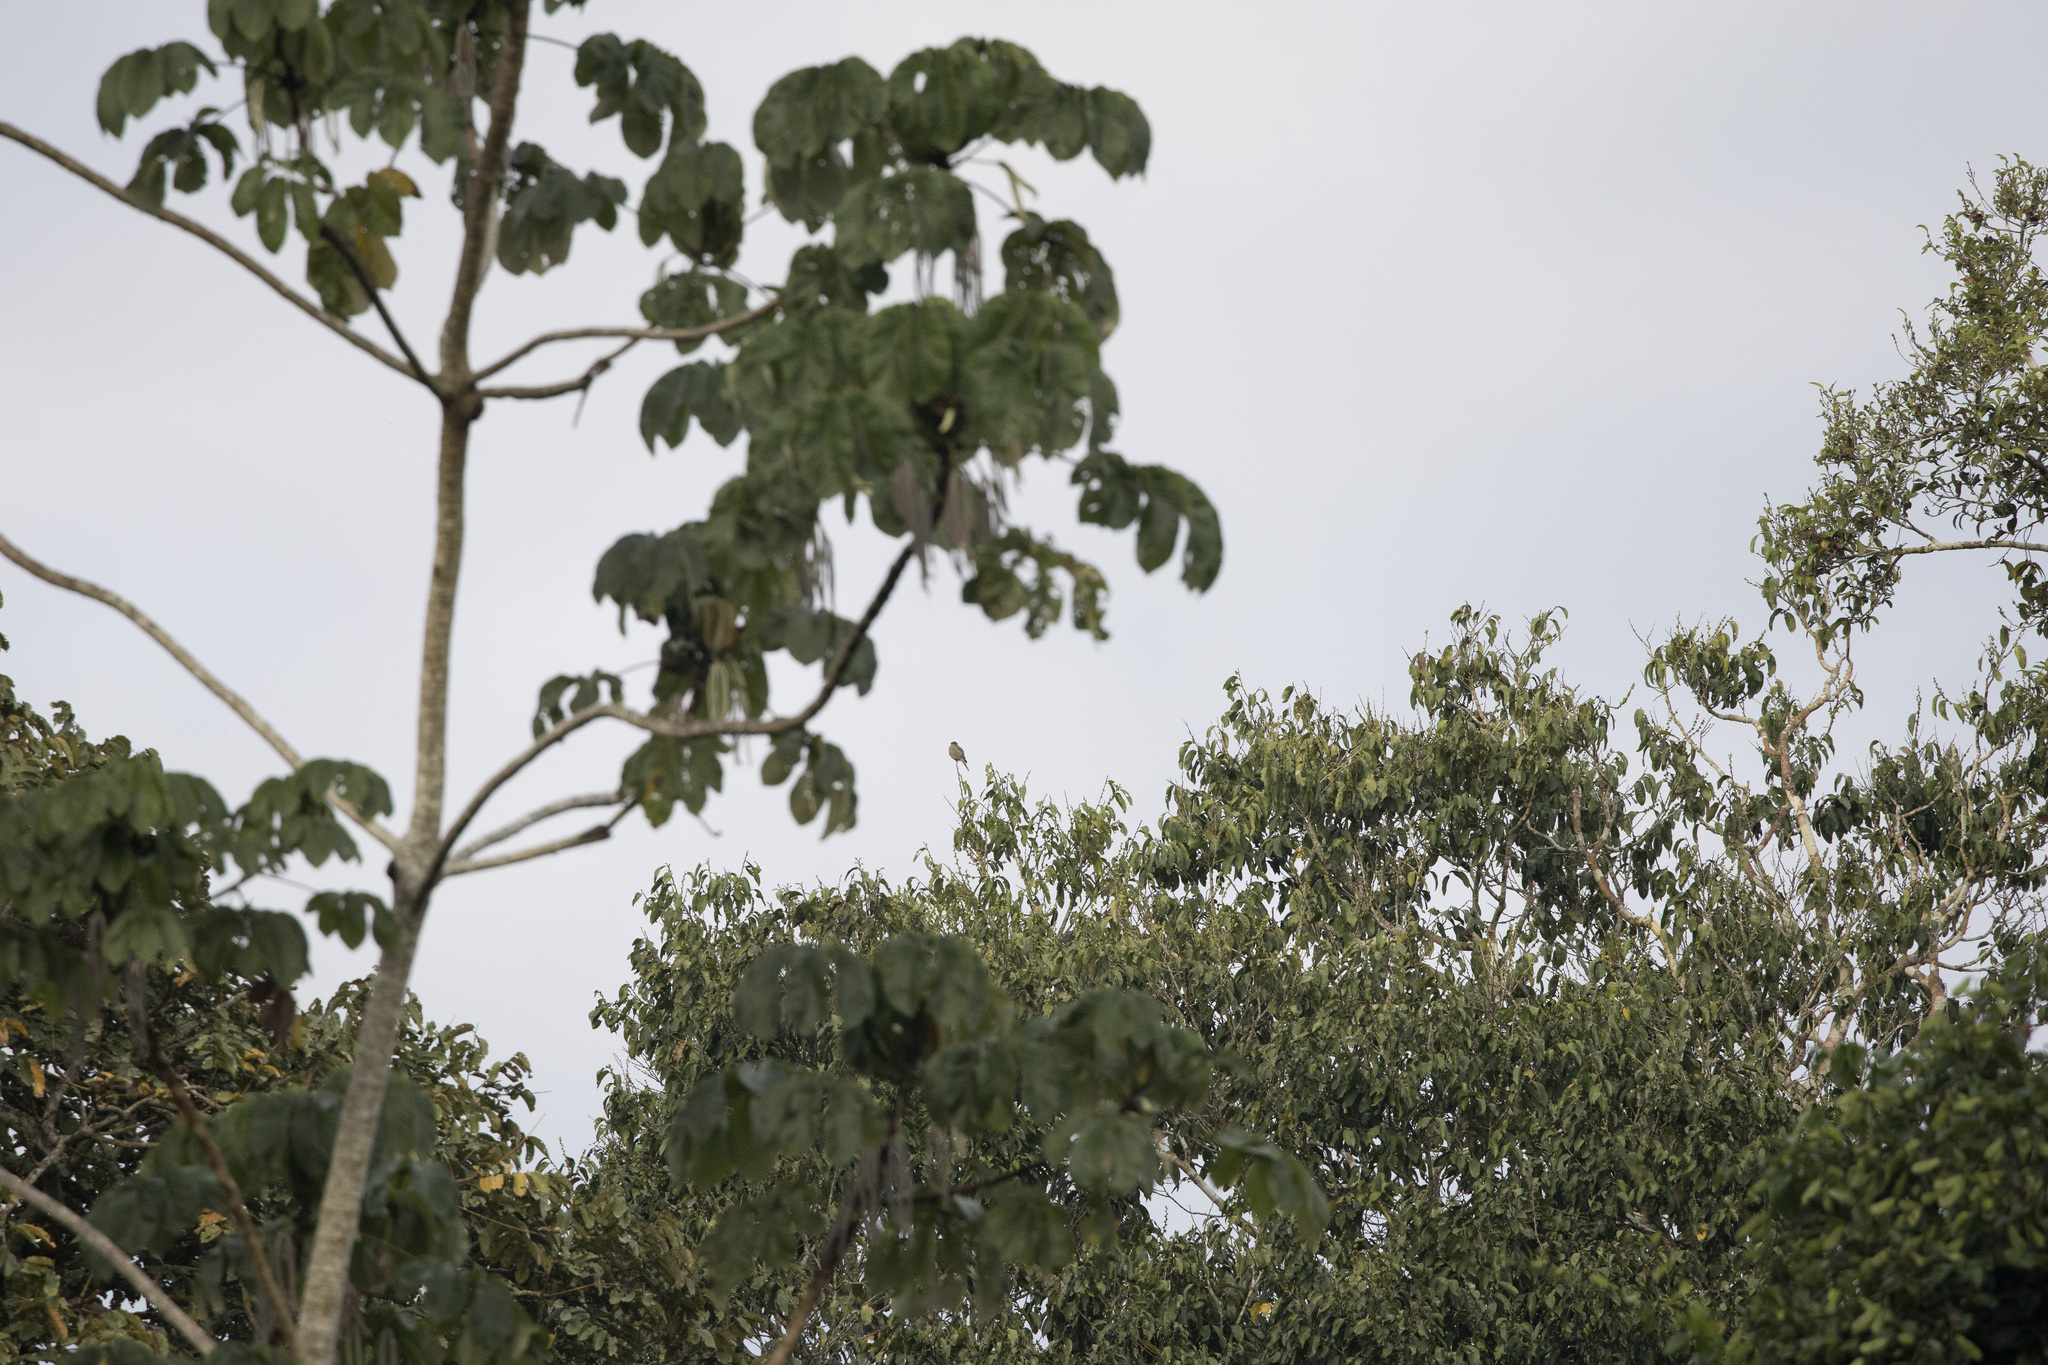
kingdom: Animalia
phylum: Chordata
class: Aves
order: Passeriformes
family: Tyrannidae
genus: Empidonomus
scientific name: Empidonomus aurantioatrocristatus
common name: Crowned slaty flycatcher
